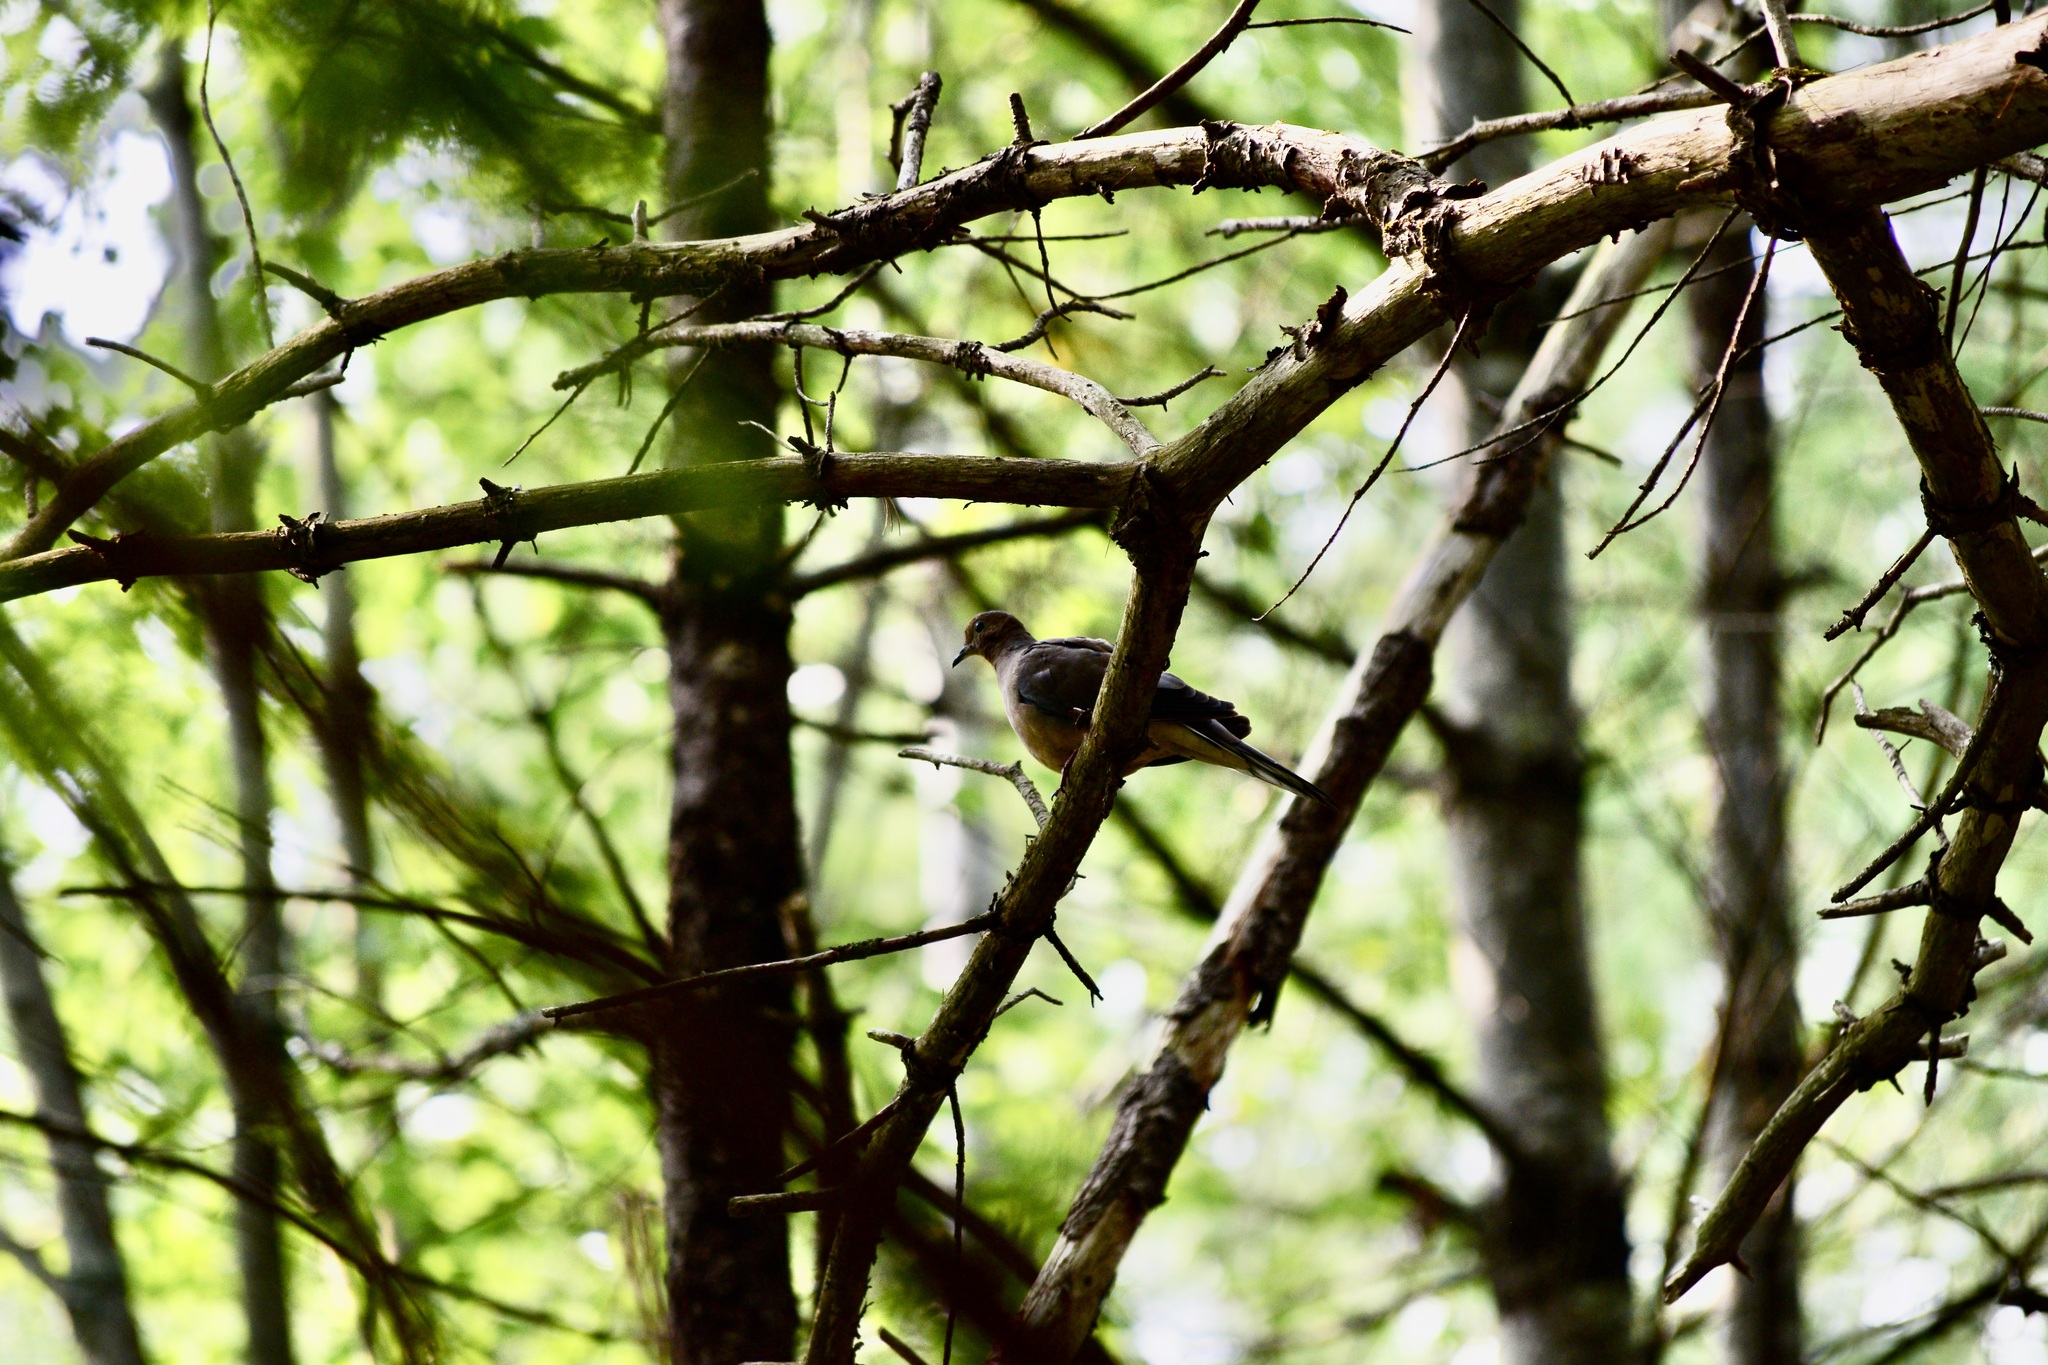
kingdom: Animalia
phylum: Chordata
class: Aves
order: Columbiformes
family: Columbidae
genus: Zenaida
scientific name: Zenaida macroura
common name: Mourning dove
